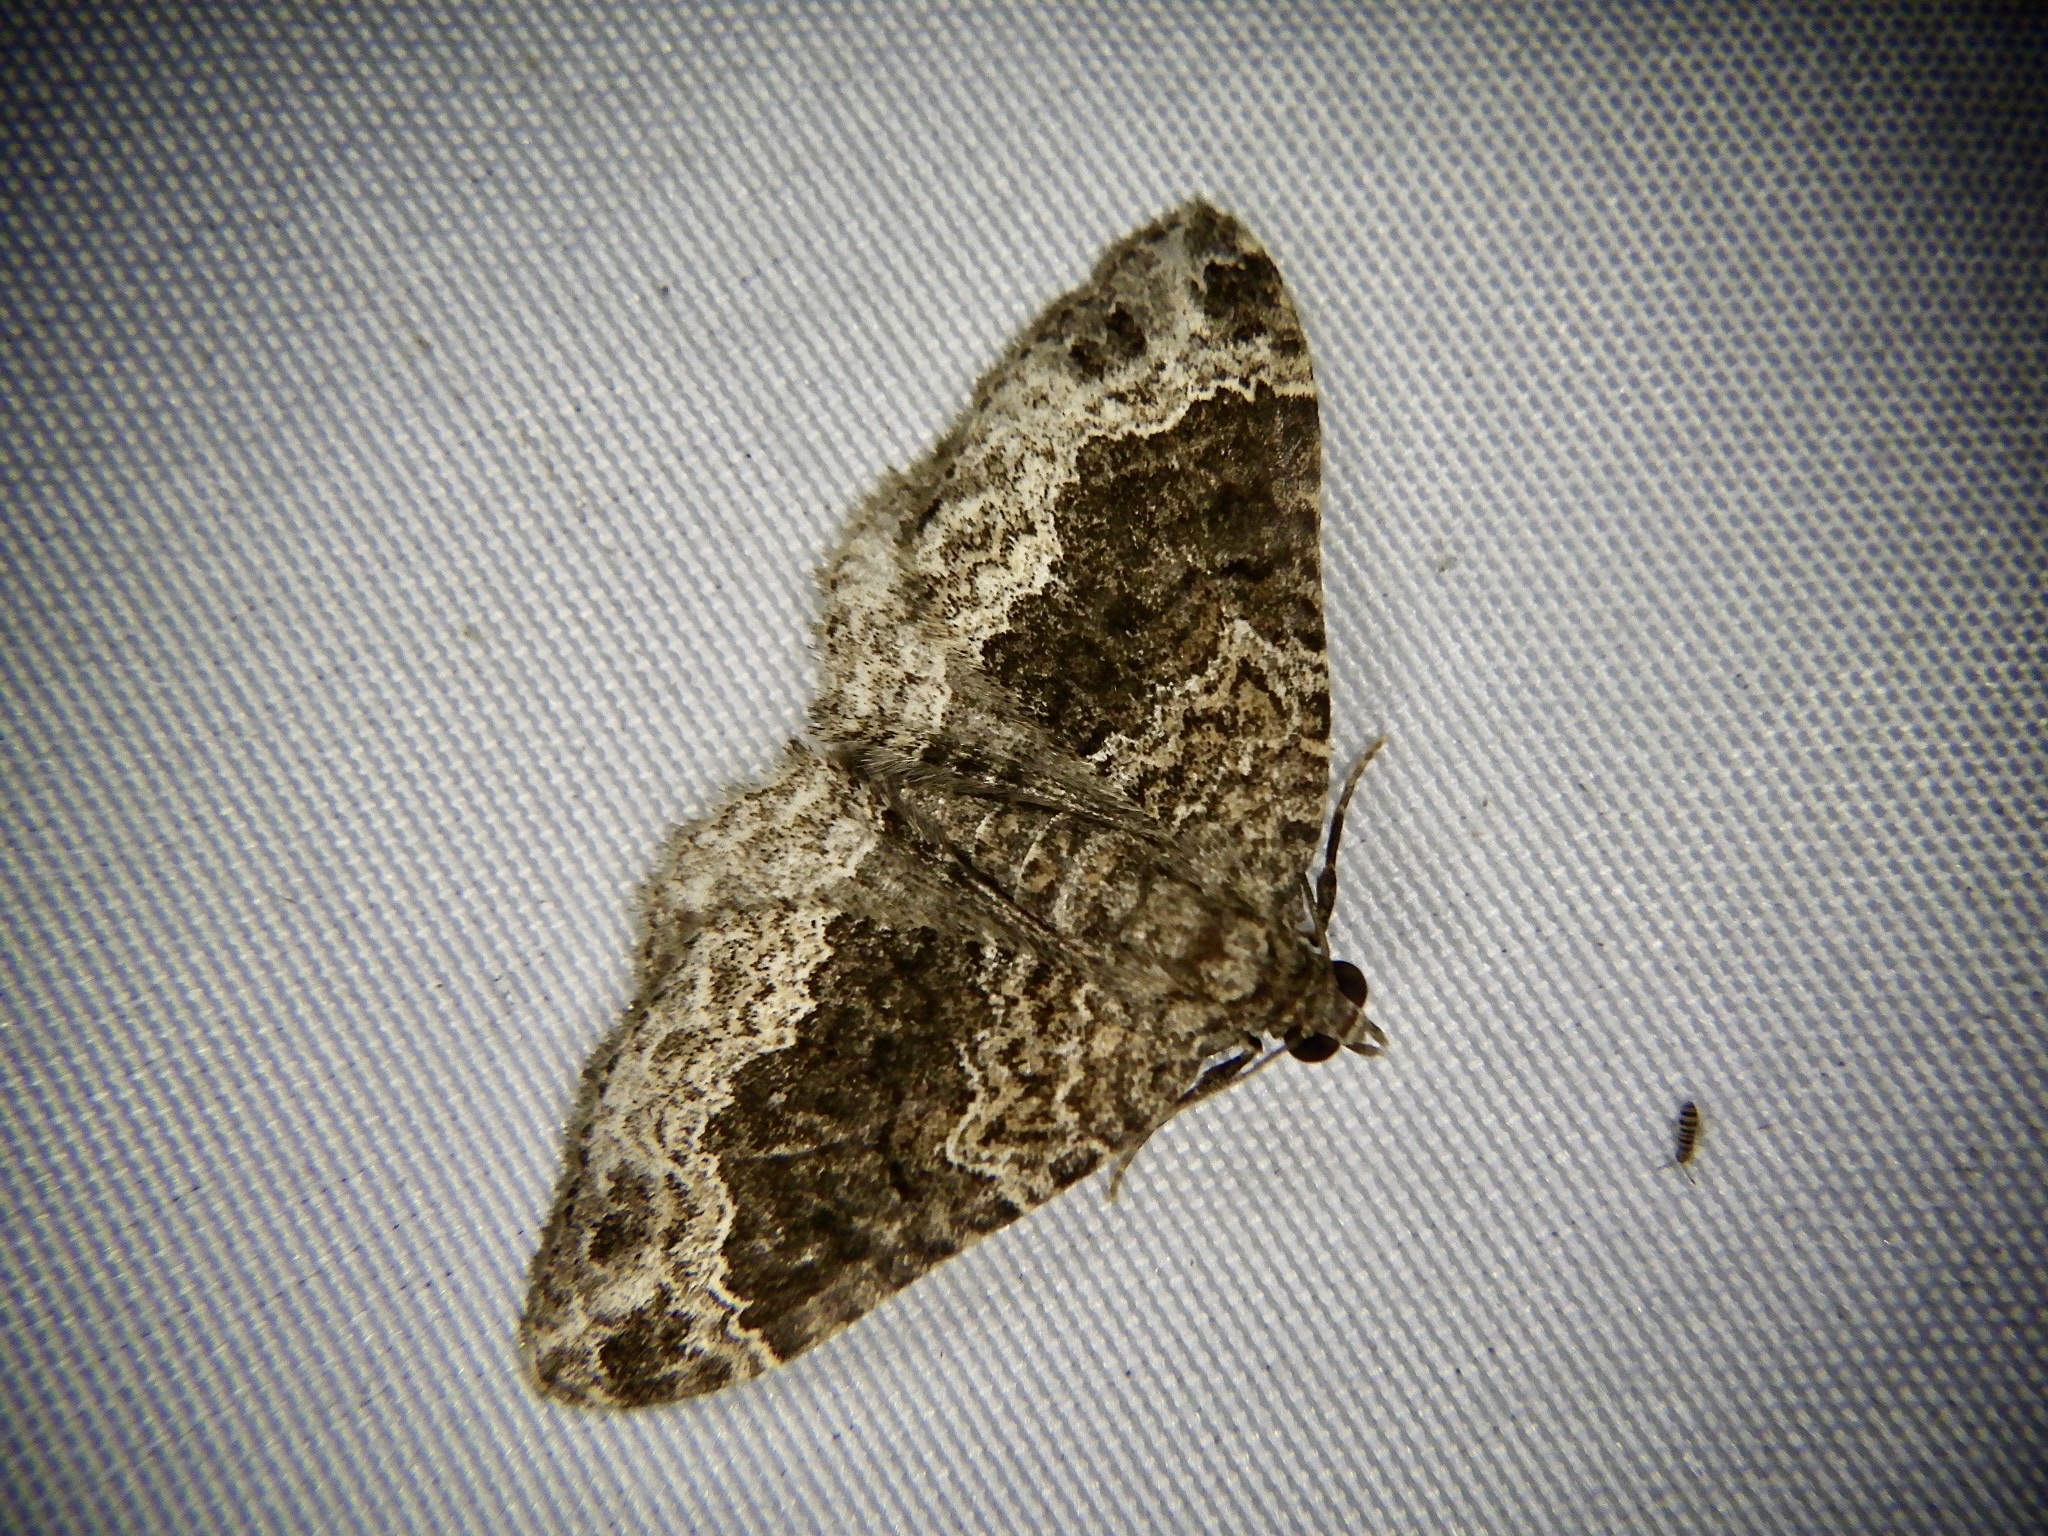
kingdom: Animalia
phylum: Arthropoda
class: Insecta
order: Lepidoptera
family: Geometridae
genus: Xanthorhoe
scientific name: Xanthorhoe saturata
